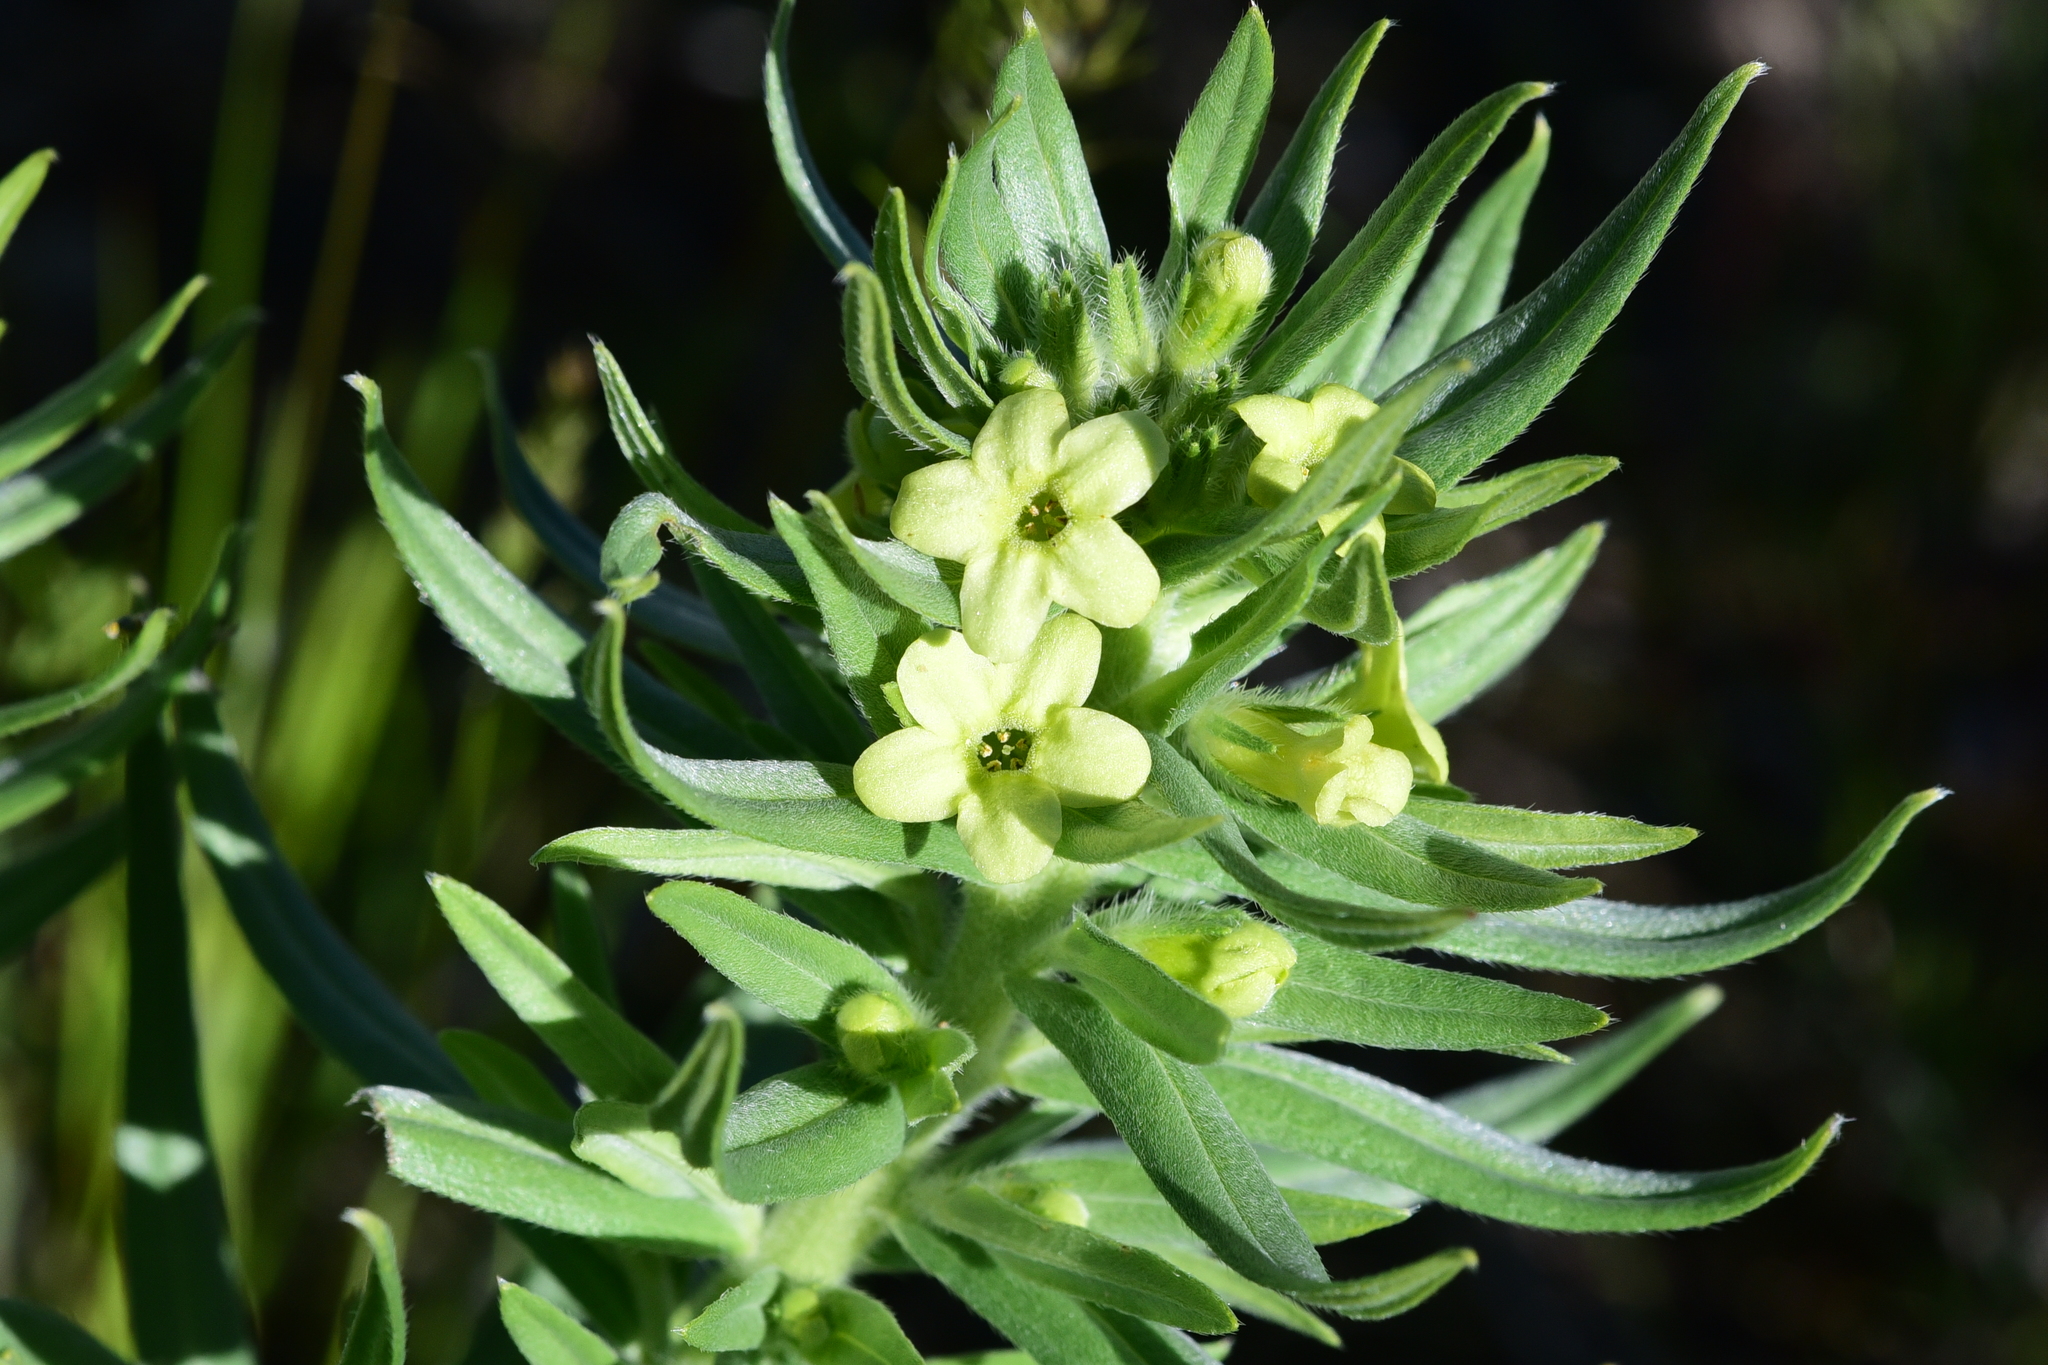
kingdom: Plantae
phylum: Tracheophyta
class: Magnoliopsida
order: Boraginales
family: Boraginaceae
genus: Lithospermum
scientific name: Lithospermum ruderale
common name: Western gromwell
